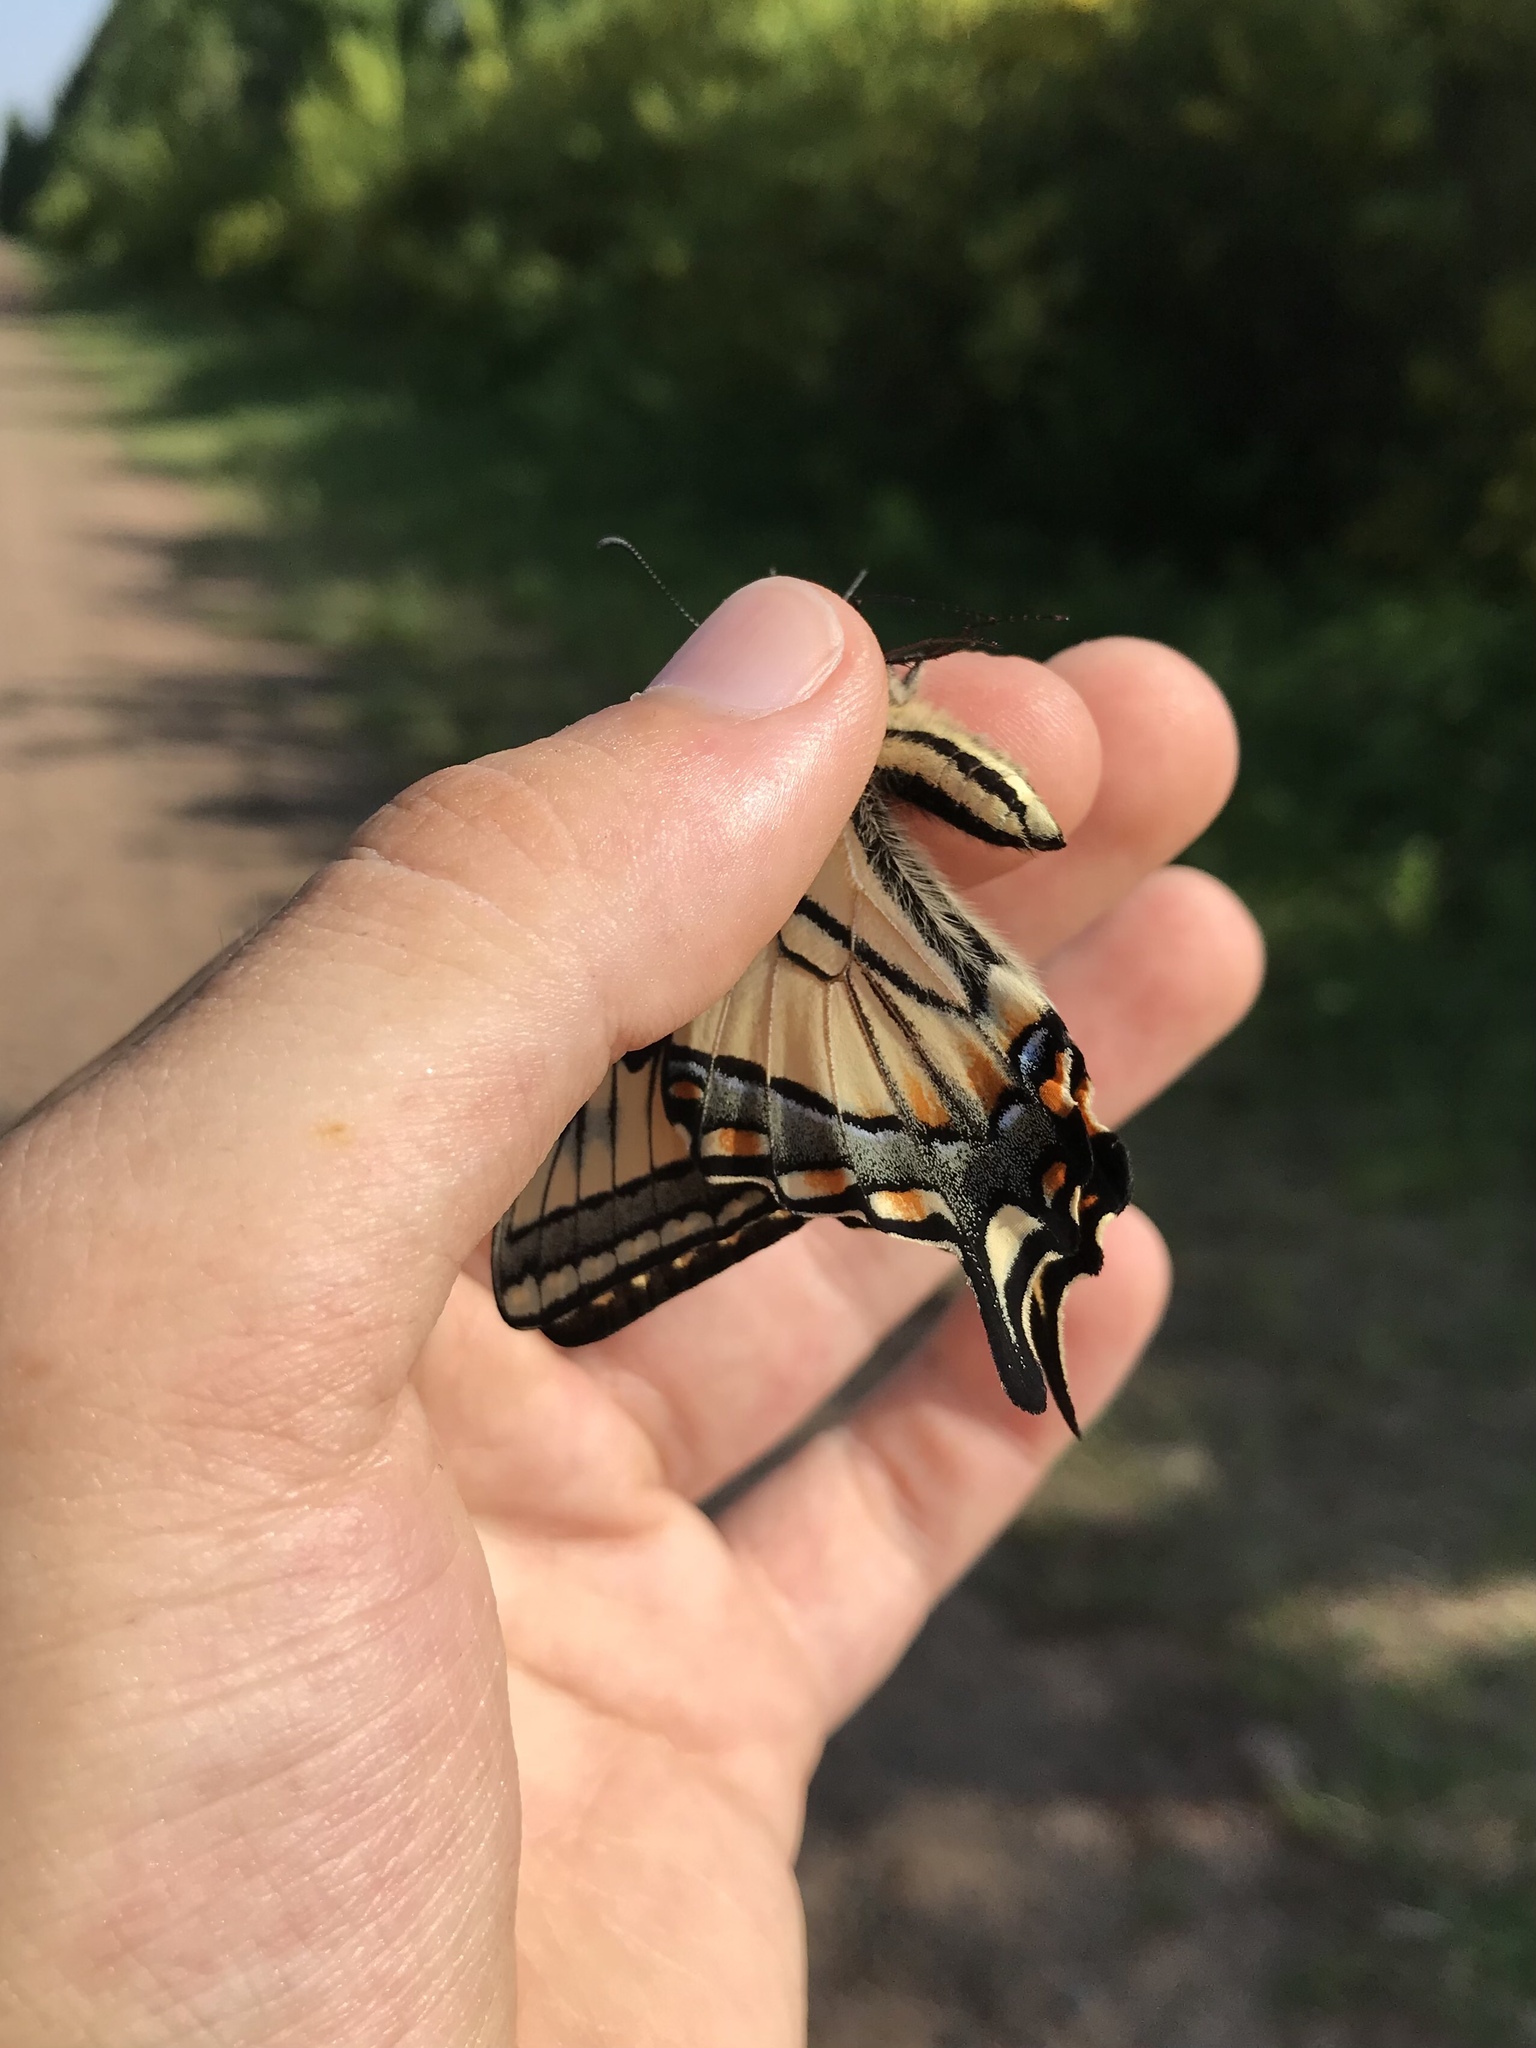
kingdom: Animalia
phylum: Arthropoda
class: Insecta
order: Lepidoptera
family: Papilionidae
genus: Papilio
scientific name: Papilio canadensis
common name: Canadian tiger swallowtail
